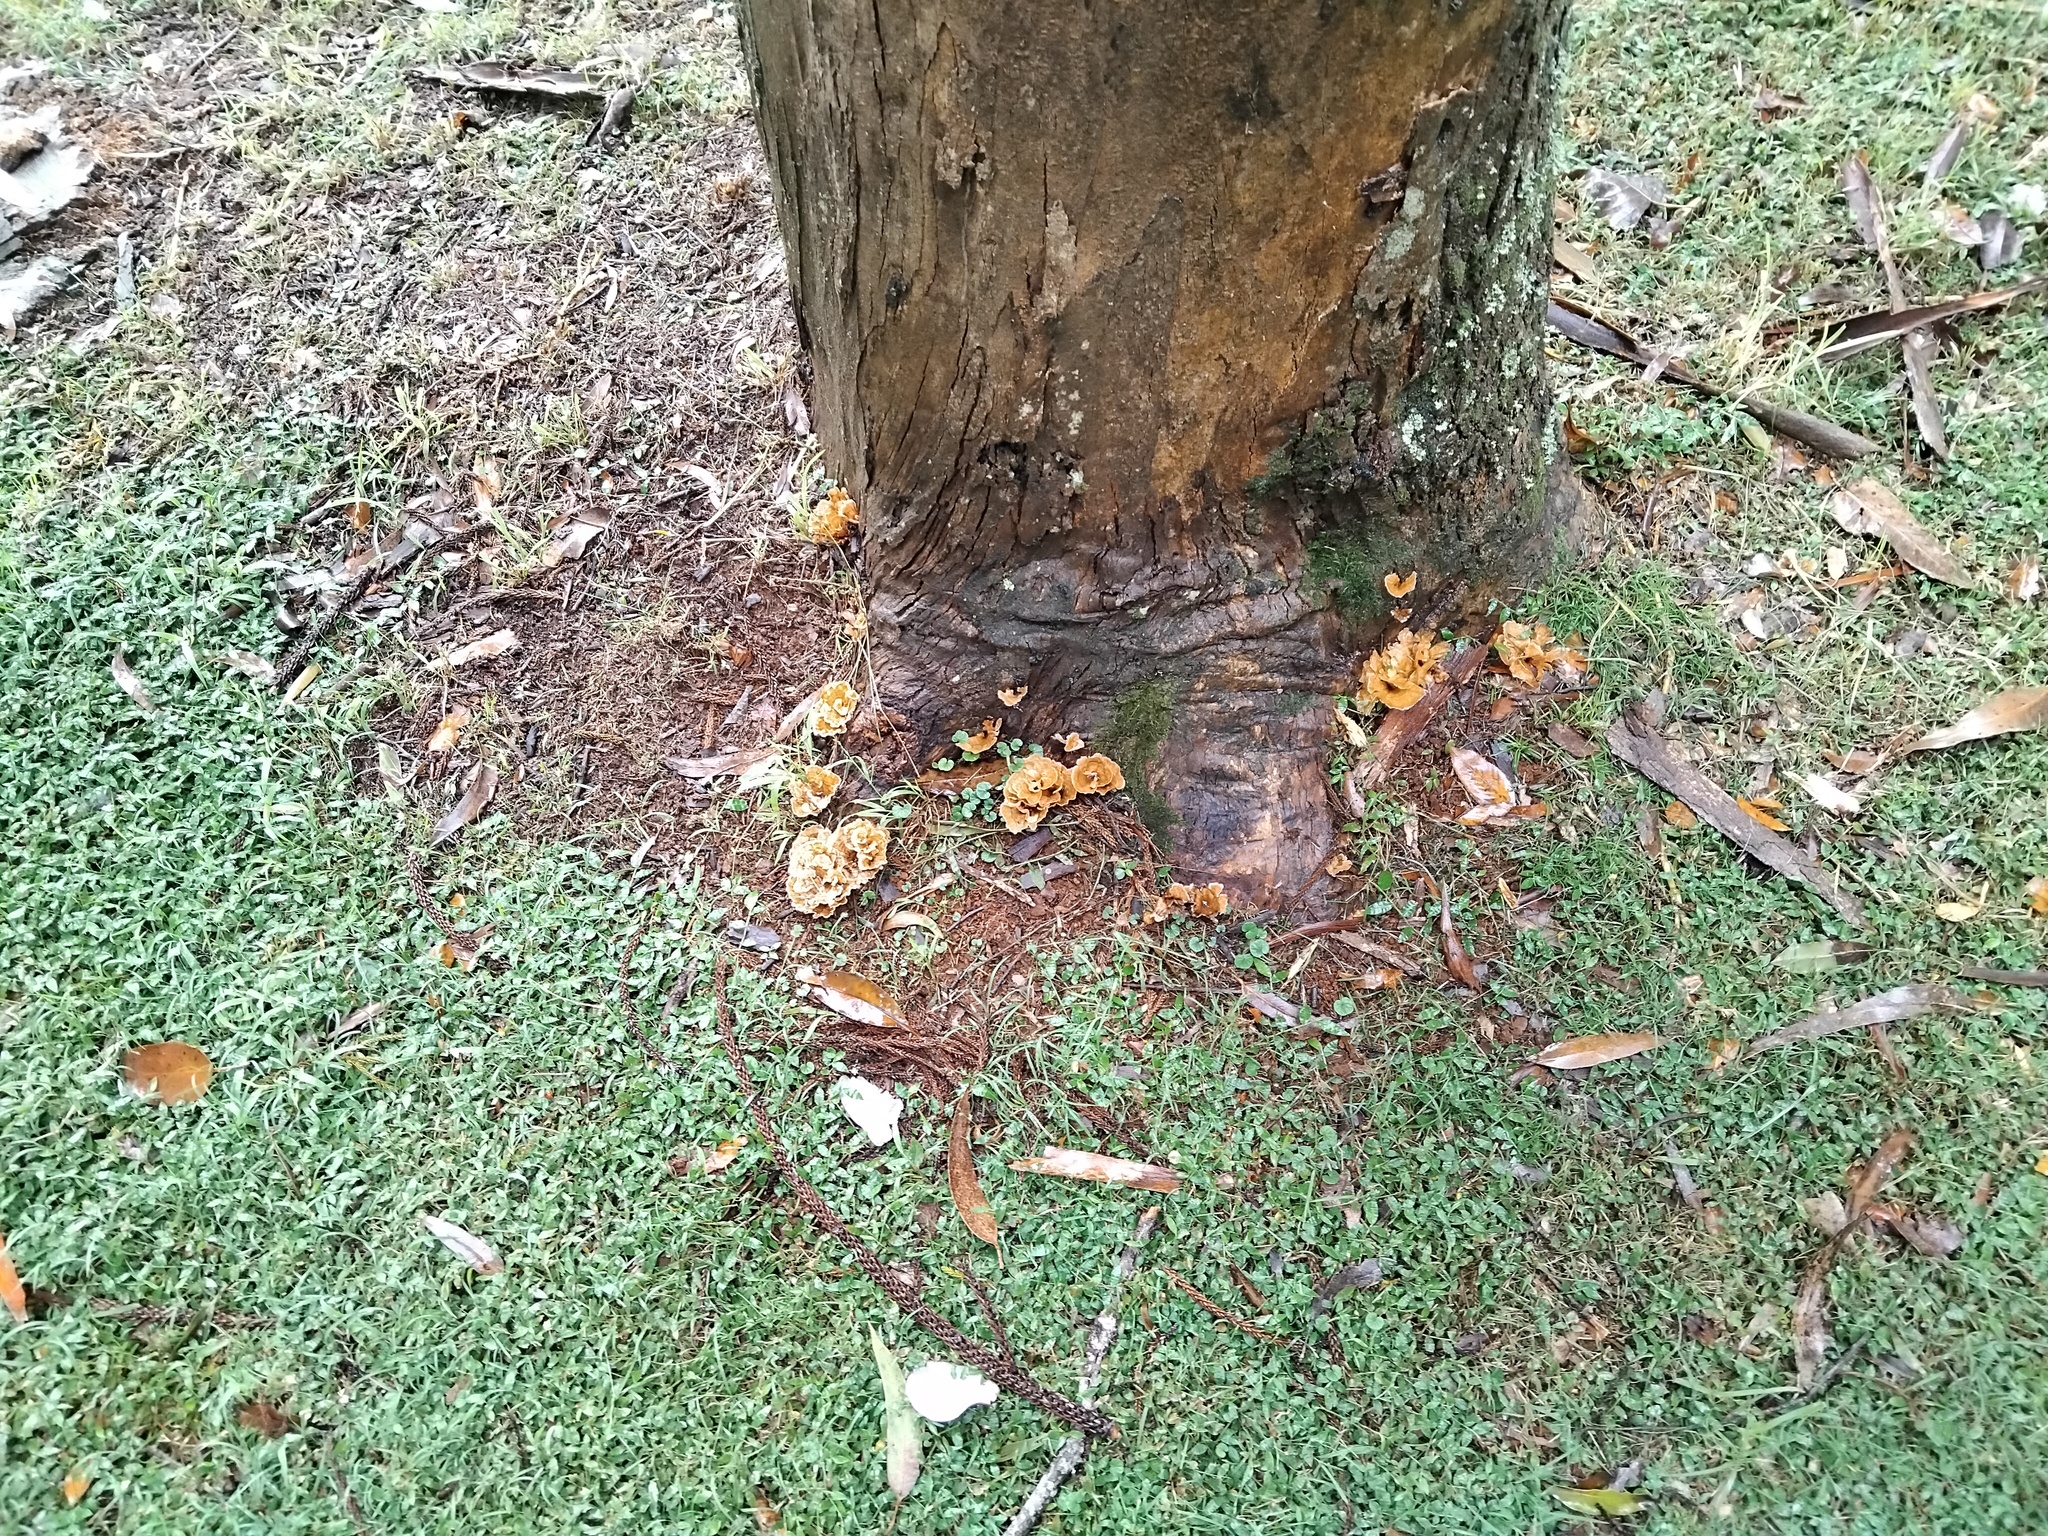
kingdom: Fungi
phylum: Basidiomycota
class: Agaricomycetes
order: Polyporales
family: Podoscyphaceae
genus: Podoscypha
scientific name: Podoscypha petalodes
